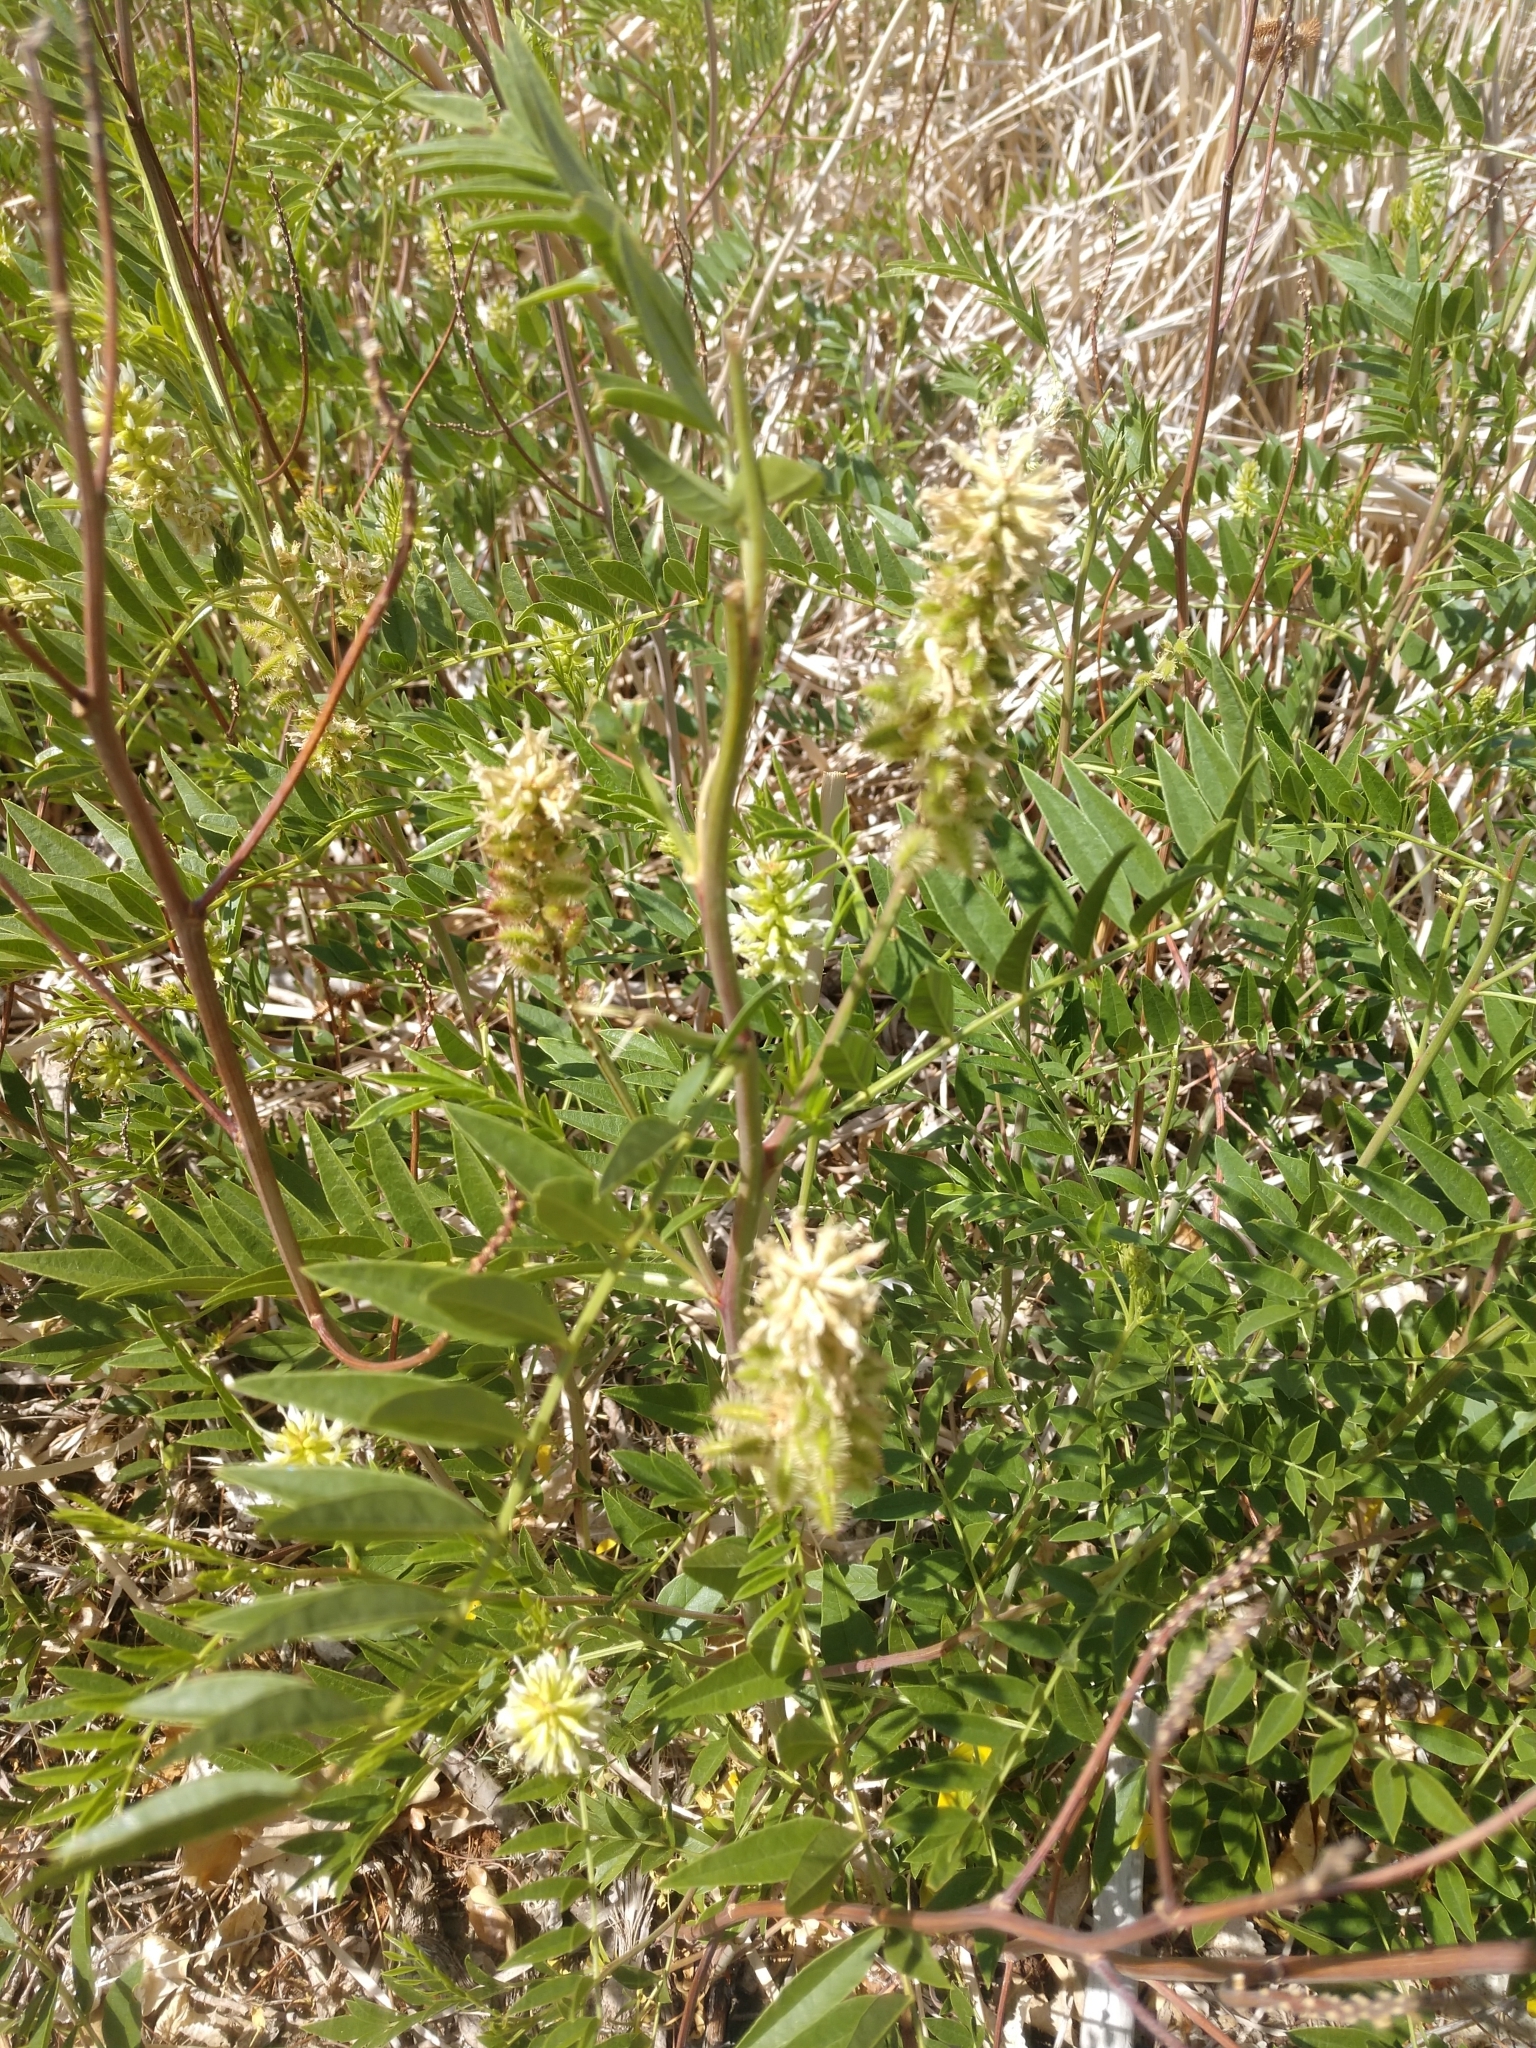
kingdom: Plantae
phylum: Tracheophyta
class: Magnoliopsida
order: Fabales
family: Fabaceae
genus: Glycyrrhiza
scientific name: Glycyrrhiza lepidota
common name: American liquorice
